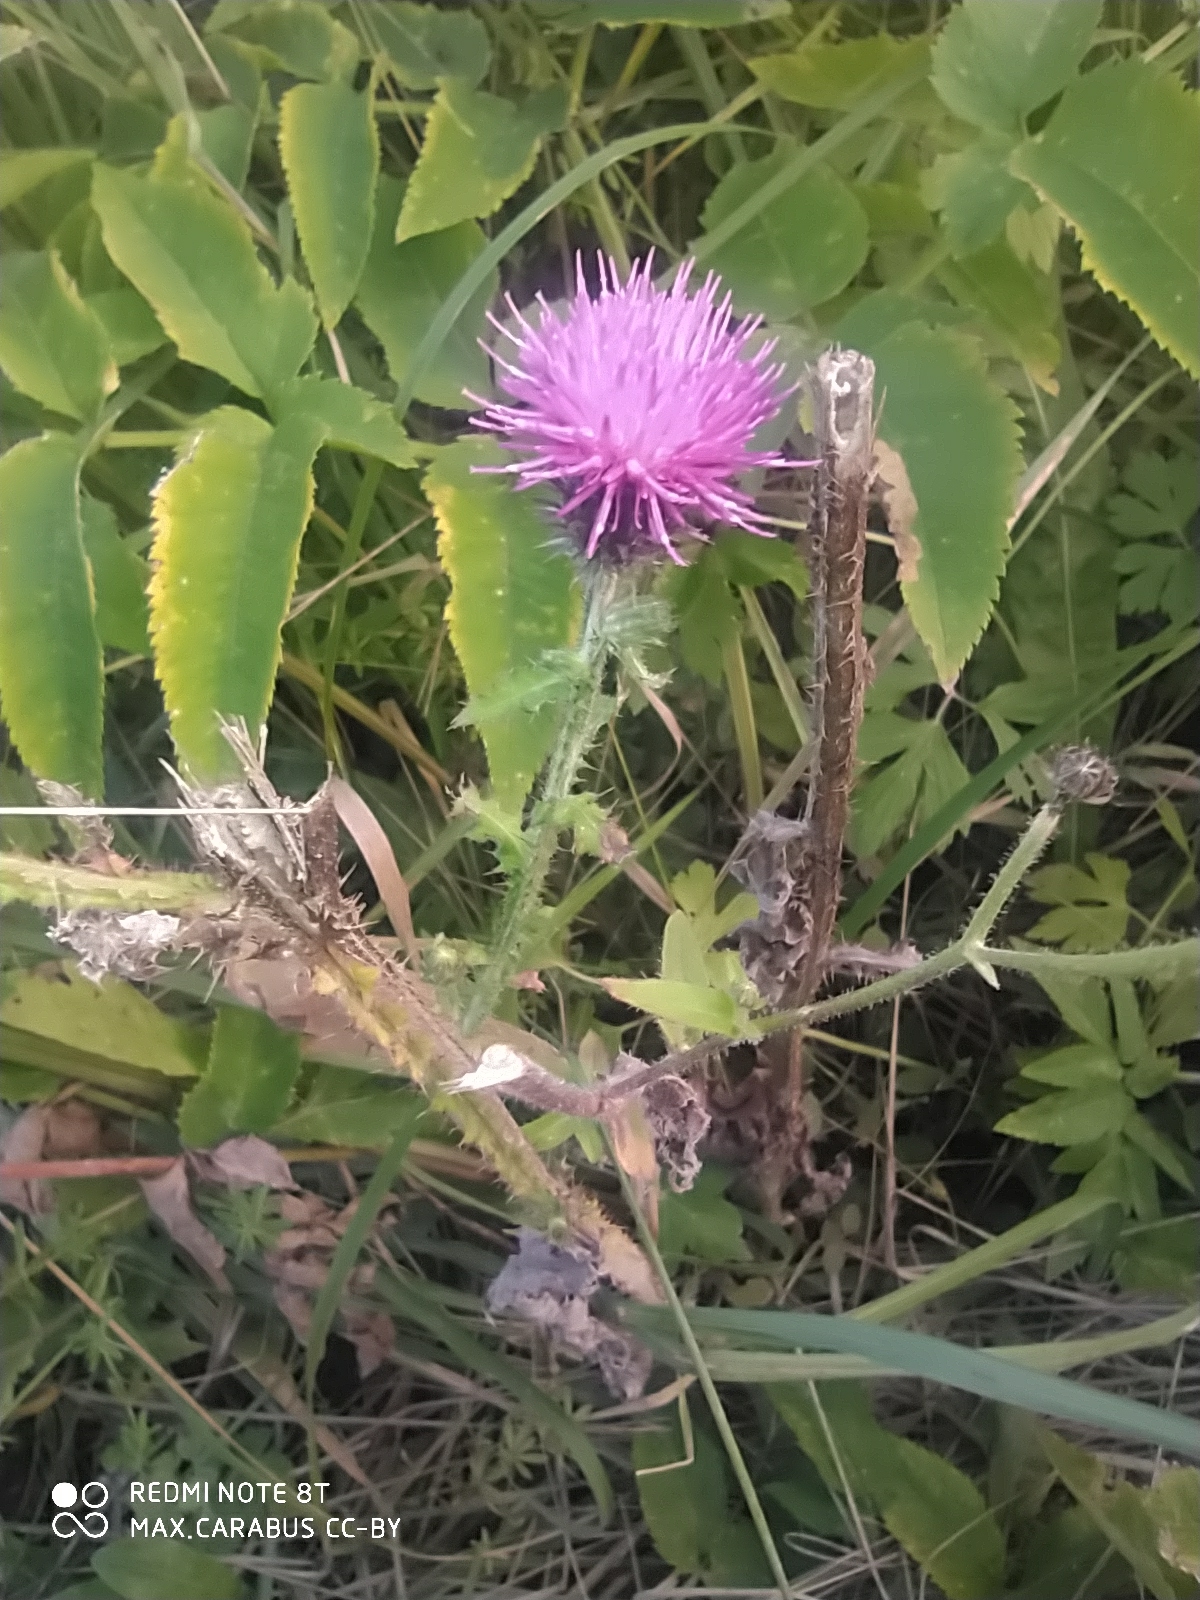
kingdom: Plantae
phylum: Tracheophyta
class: Magnoliopsida
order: Asterales
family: Asteraceae
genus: Carduus
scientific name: Carduus crispus
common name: Welted thistle
